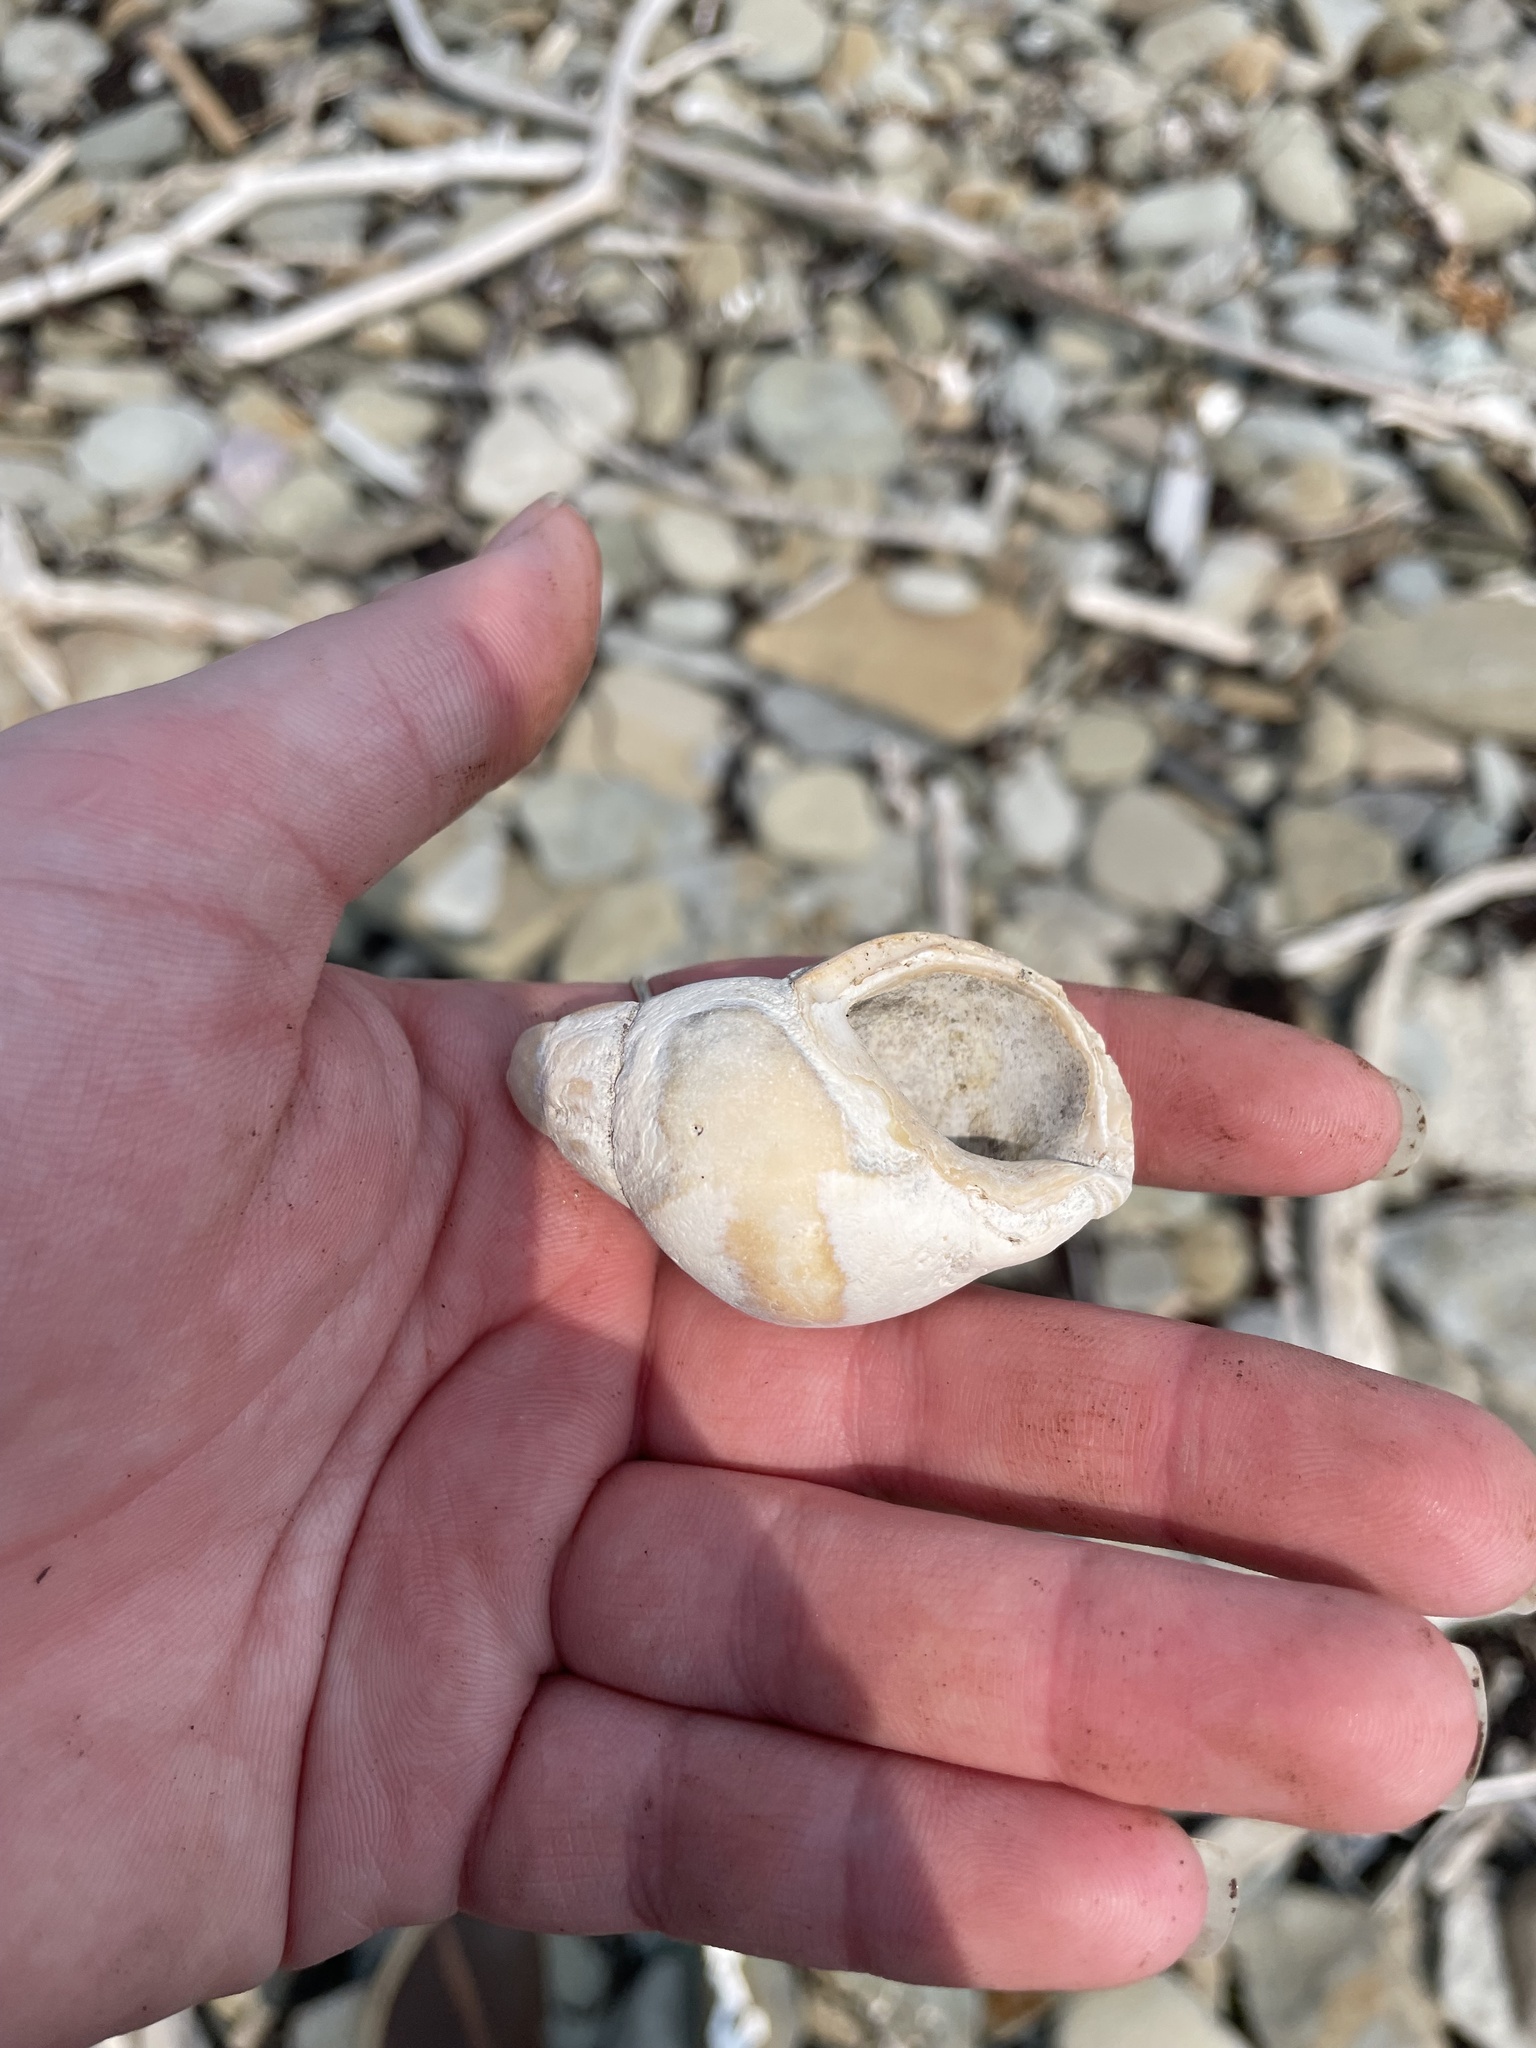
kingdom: Animalia
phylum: Mollusca
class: Gastropoda
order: Neogastropoda
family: Buccinidae
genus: Buccinum
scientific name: Buccinum undatum
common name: Common whelk
